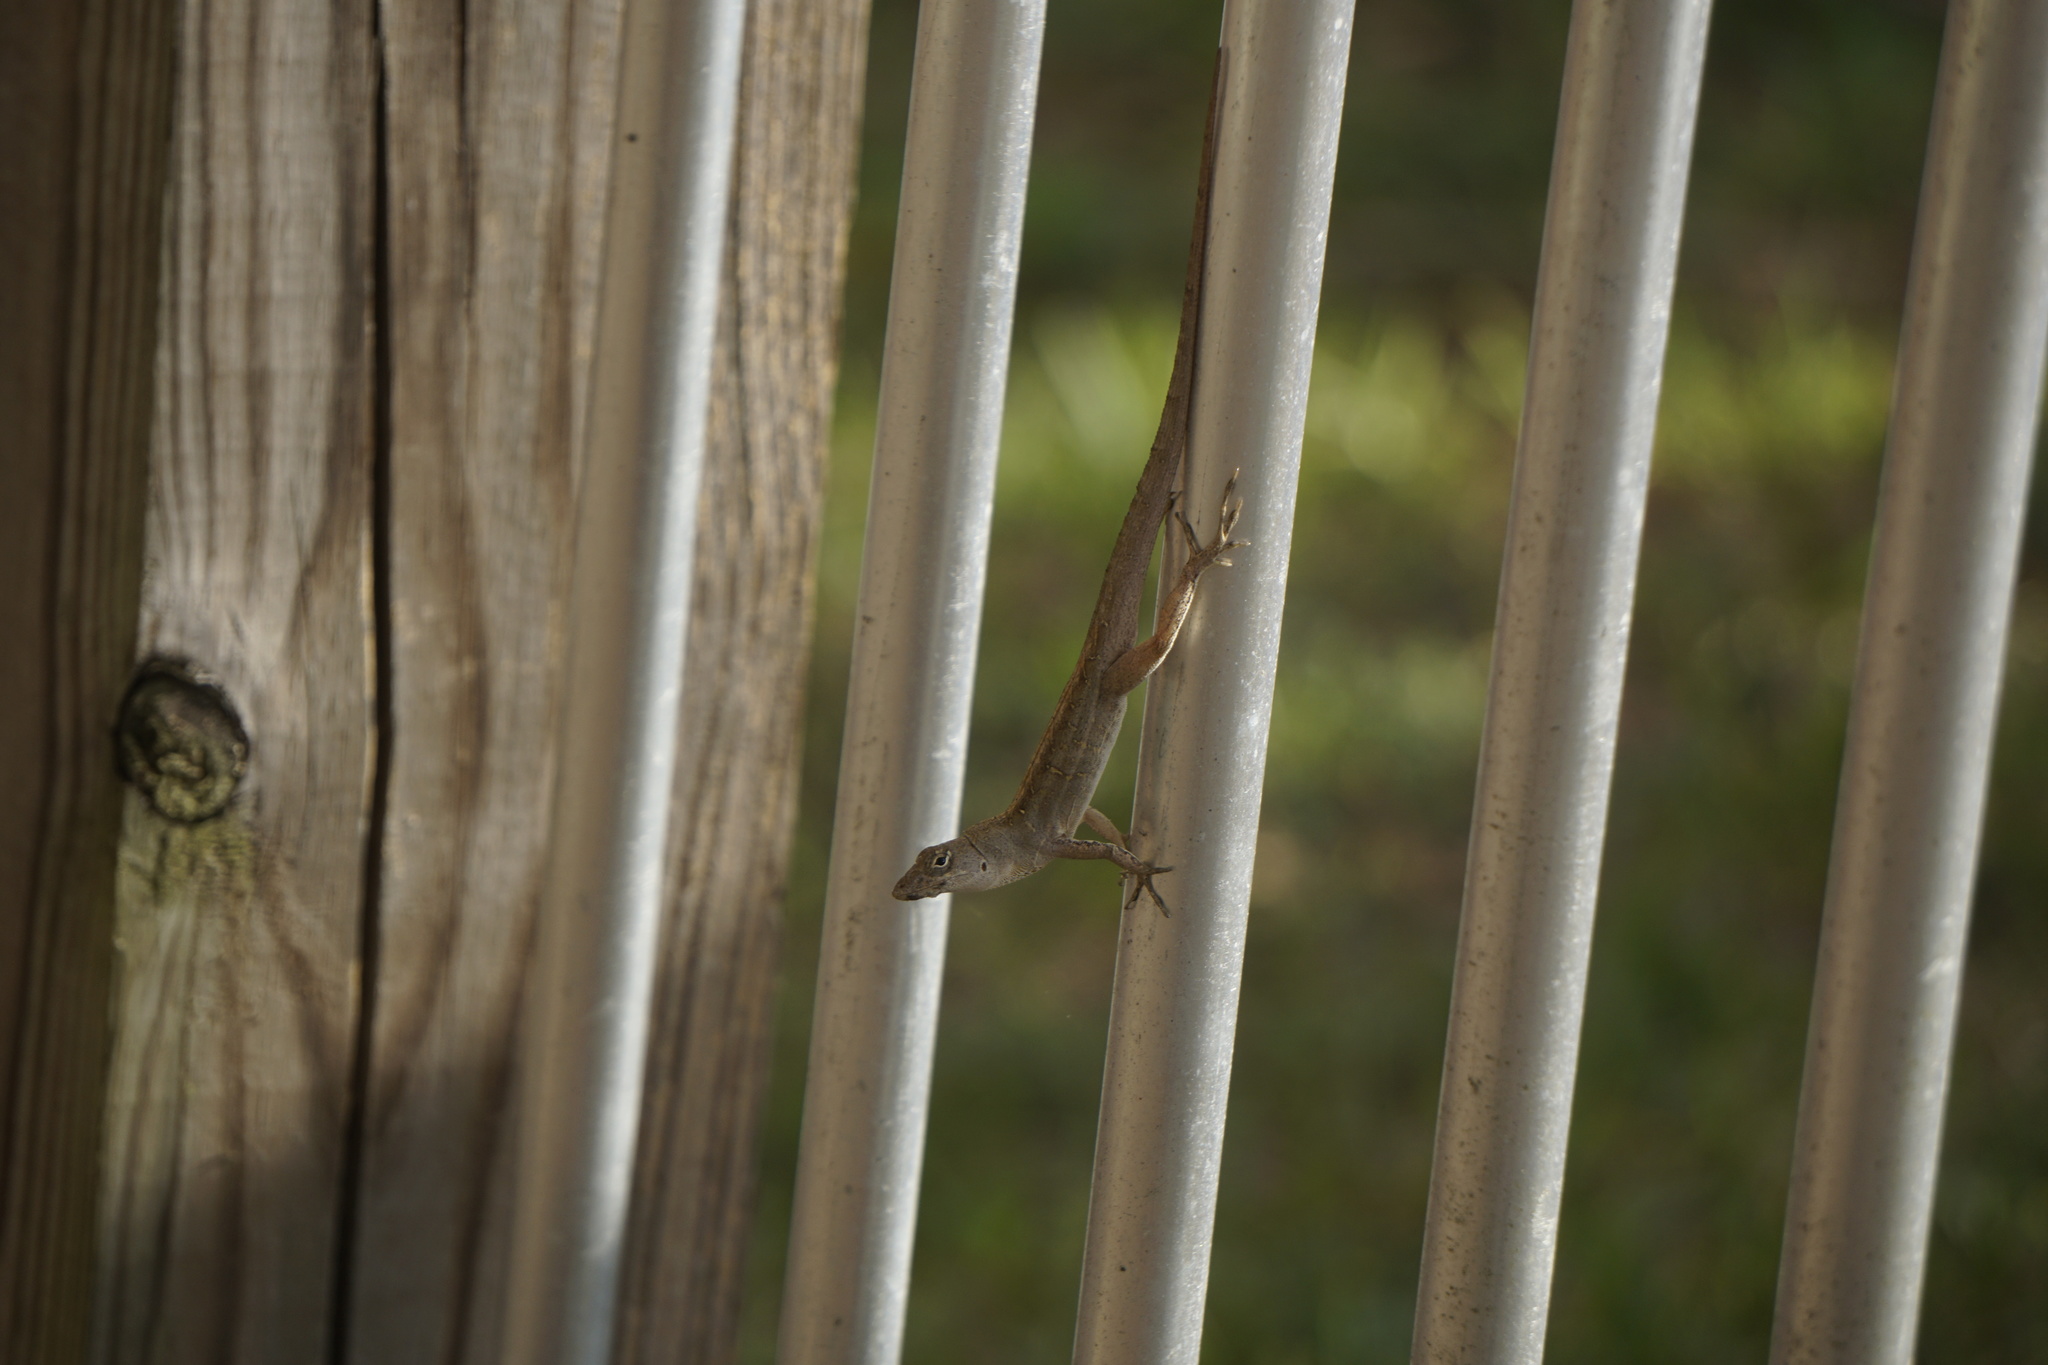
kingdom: Animalia
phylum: Chordata
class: Squamata
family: Dactyloidae
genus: Anolis
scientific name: Anolis sagrei
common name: Brown anole
